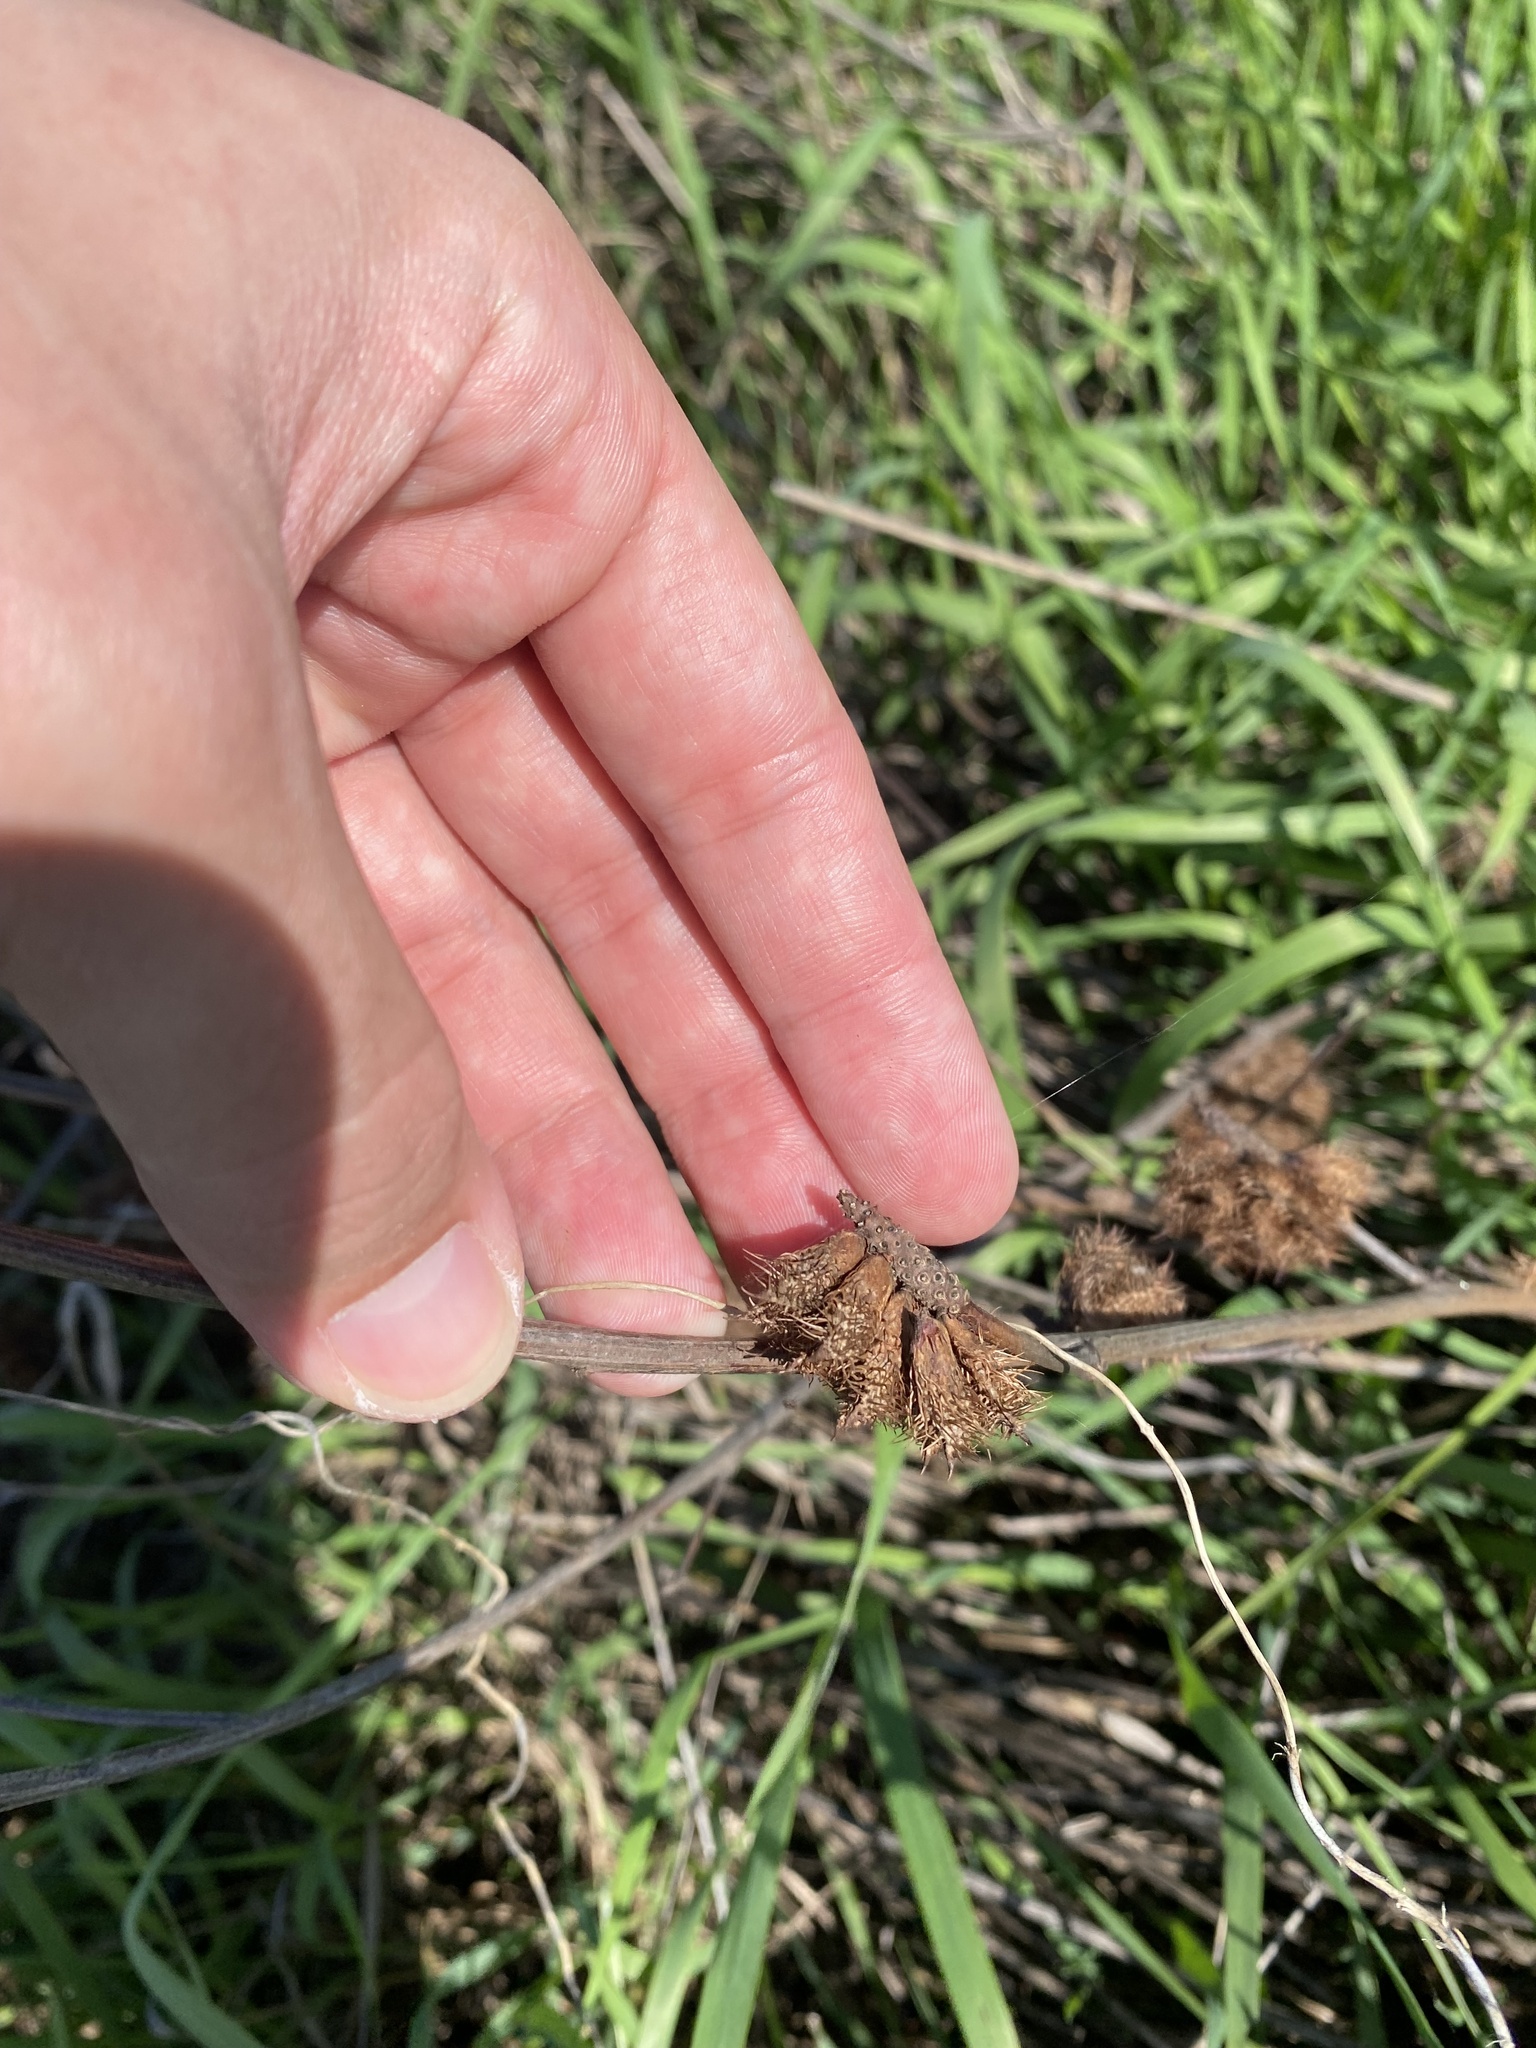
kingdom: Plantae
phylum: Tracheophyta
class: Magnoliopsida
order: Fabales
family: Fabaceae
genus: Glycyrrhiza
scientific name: Glycyrrhiza echinata
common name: German liquorice
